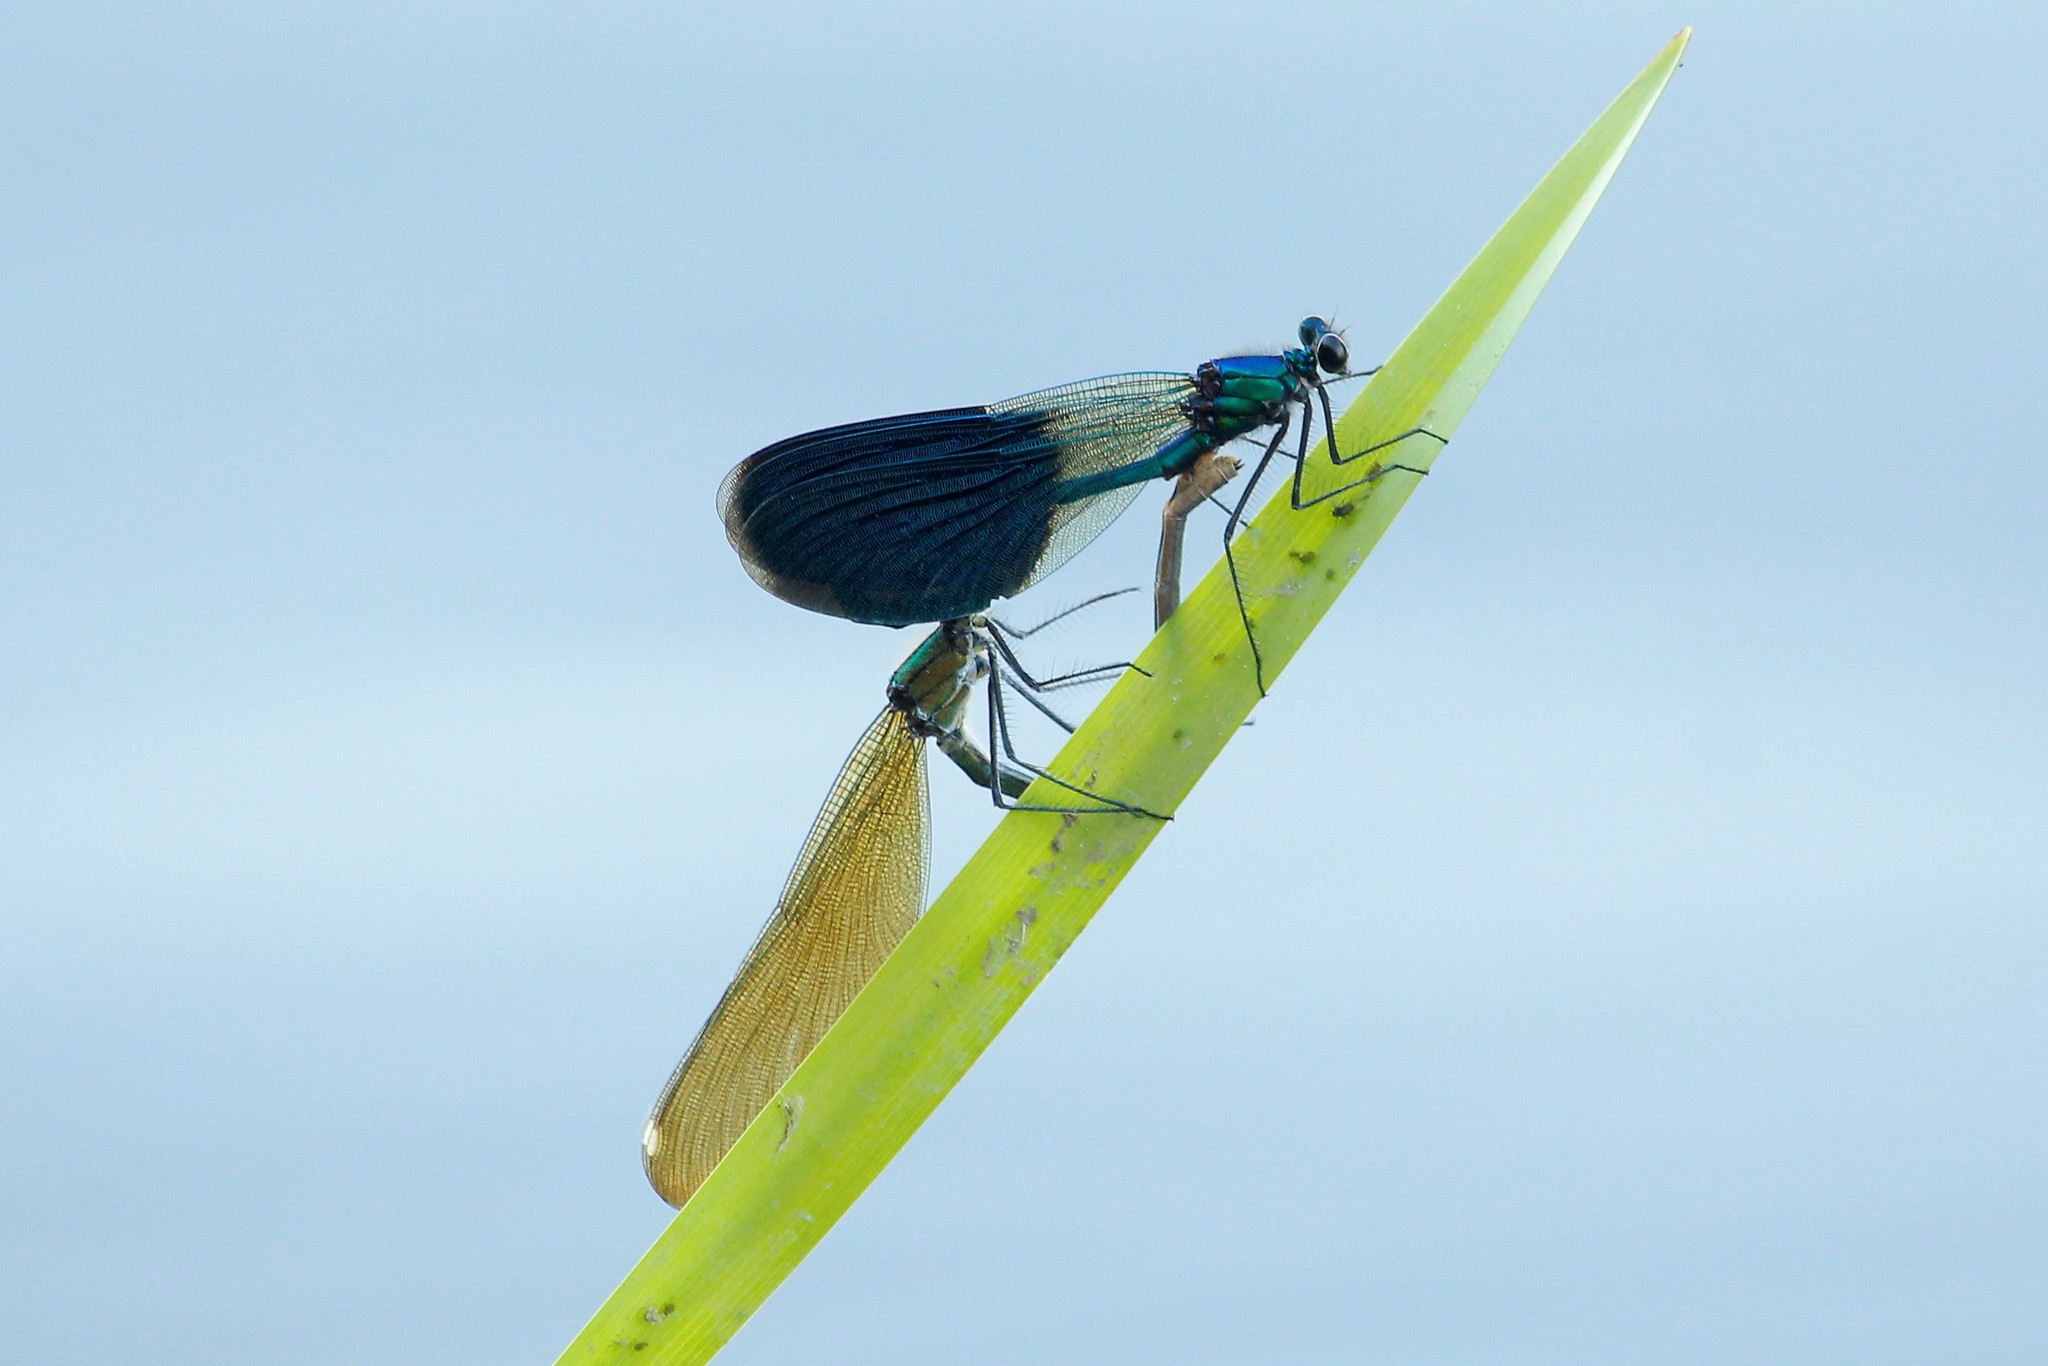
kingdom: Animalia
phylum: Arthropoda
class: Insecta
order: Odonata
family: Calopterygidae
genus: Calopteryx
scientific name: Calopteryx splendens
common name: Banded demoiselle
